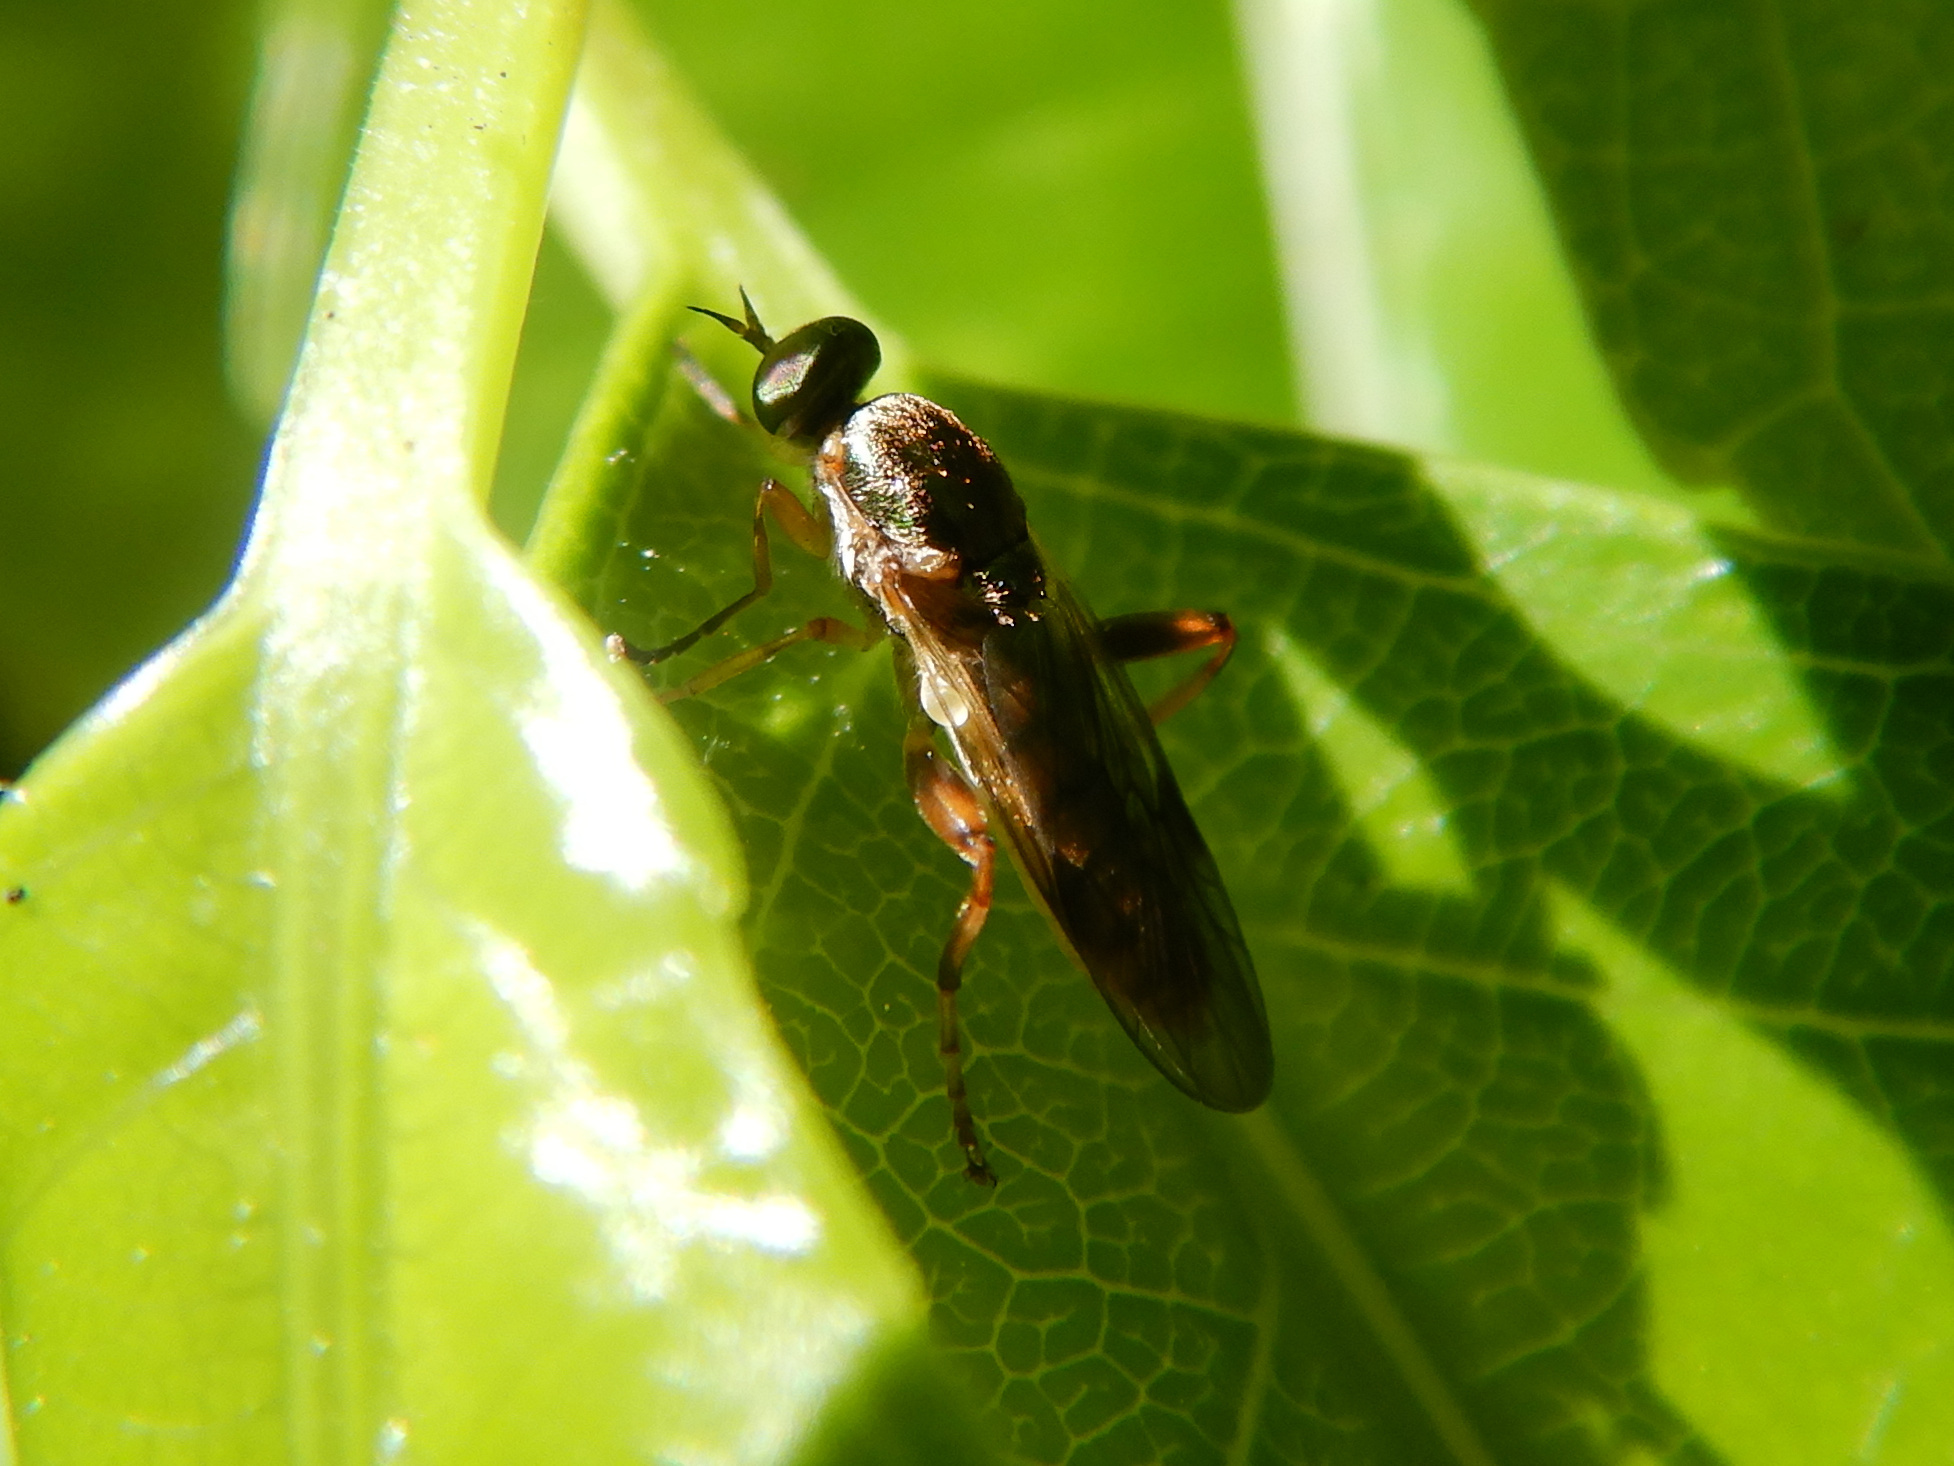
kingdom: Animalia
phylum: Arthropoda
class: Insecta
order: Diptera
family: Stratiomyidae
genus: Neactina
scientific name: Neactina opposita
